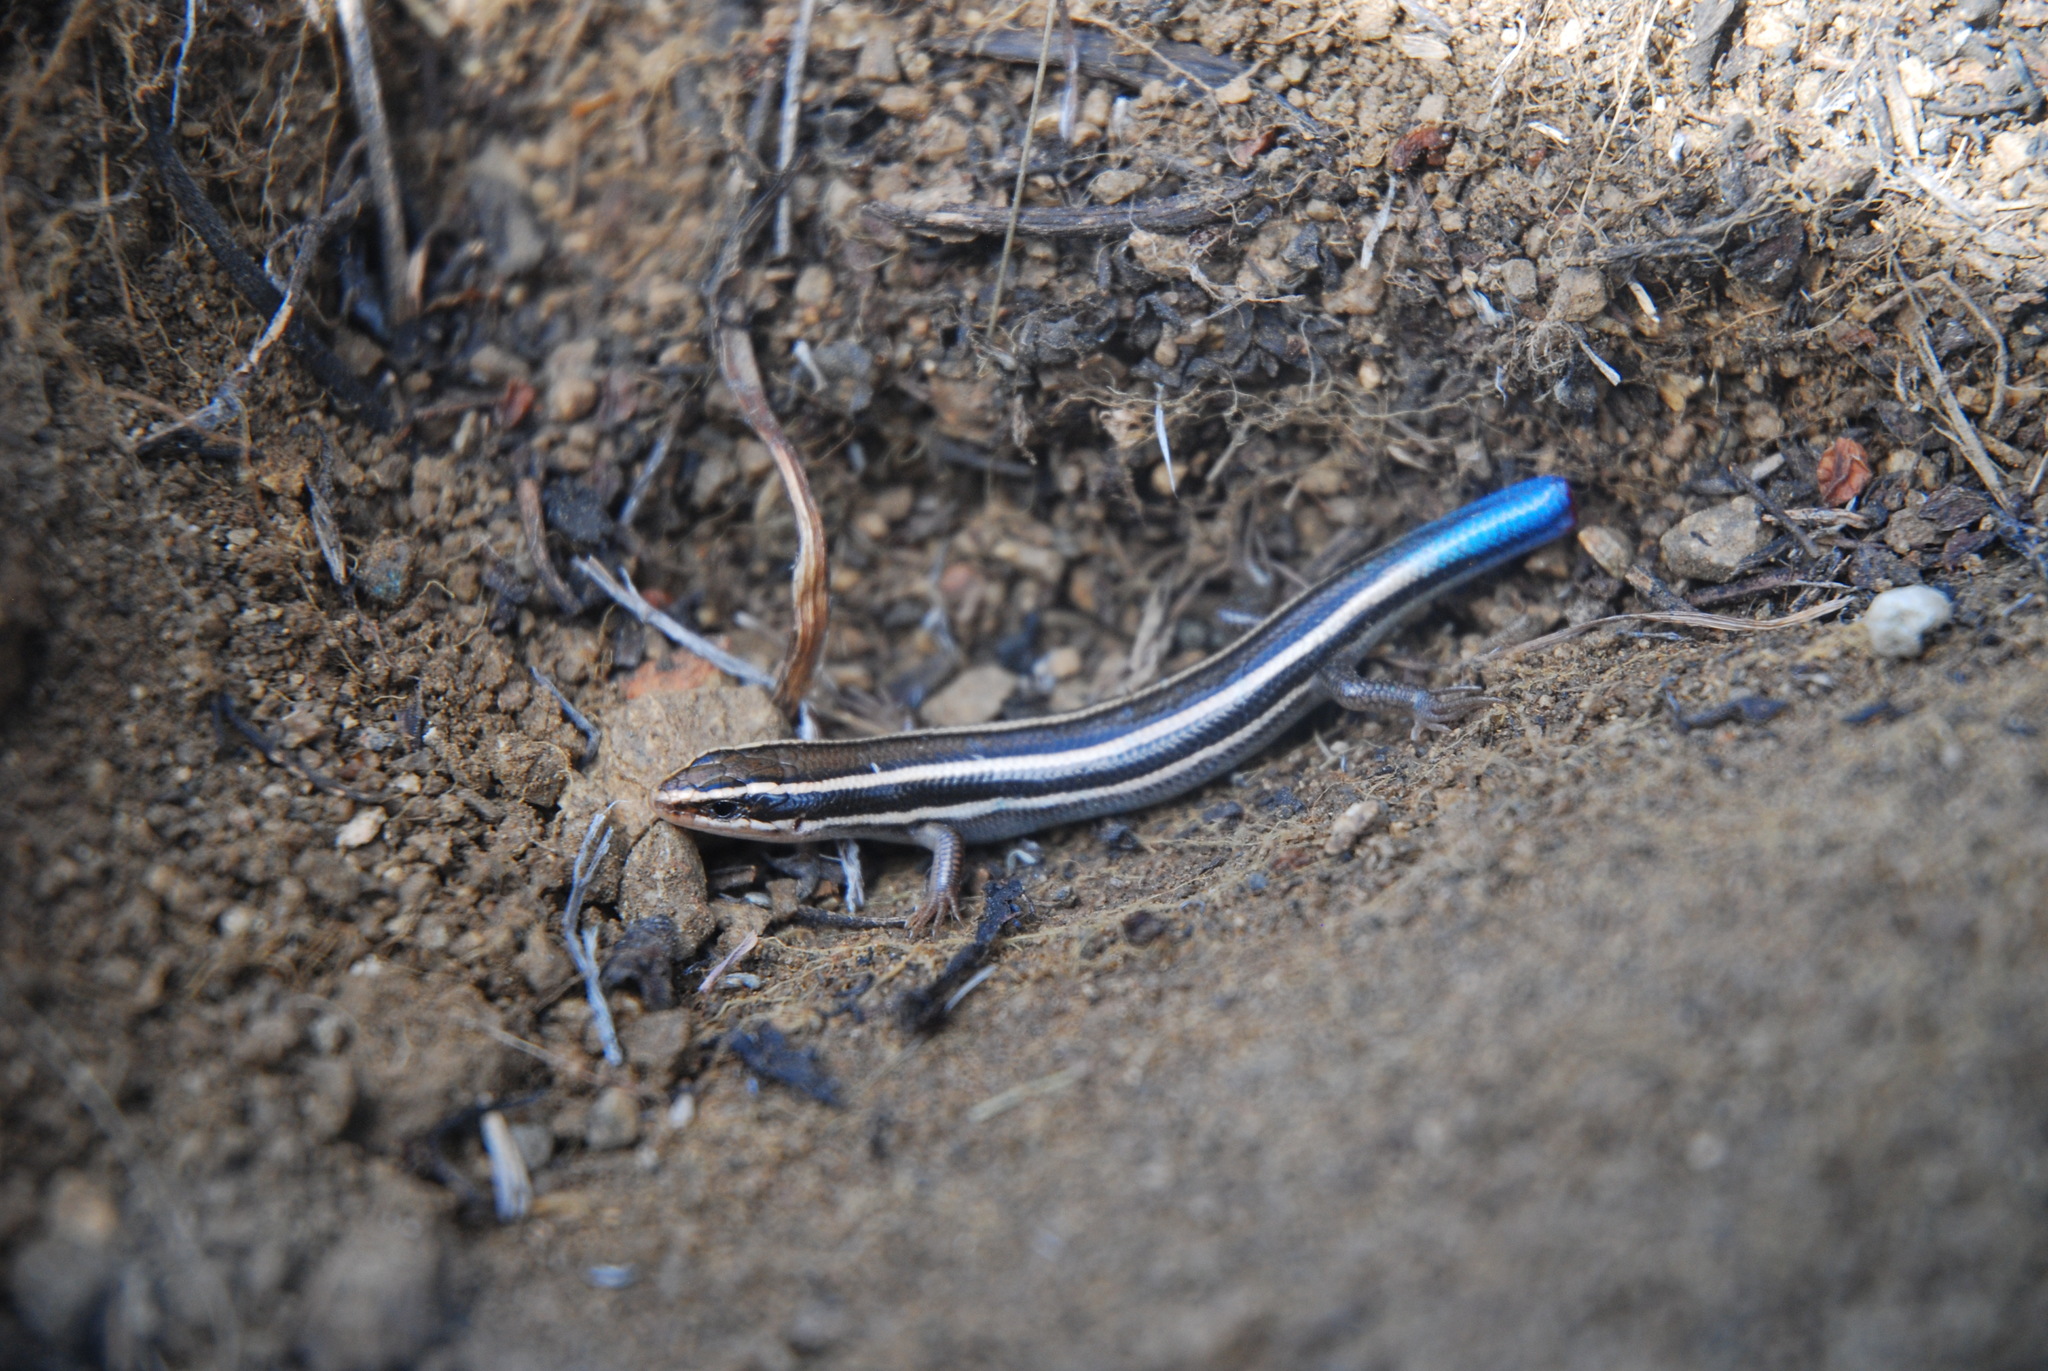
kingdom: Animalia
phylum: Chordata
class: Squamata
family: Scincidae
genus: Plestiodon
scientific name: Plestiodon skiltonianus
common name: Coronado island skink [interparietalis]
